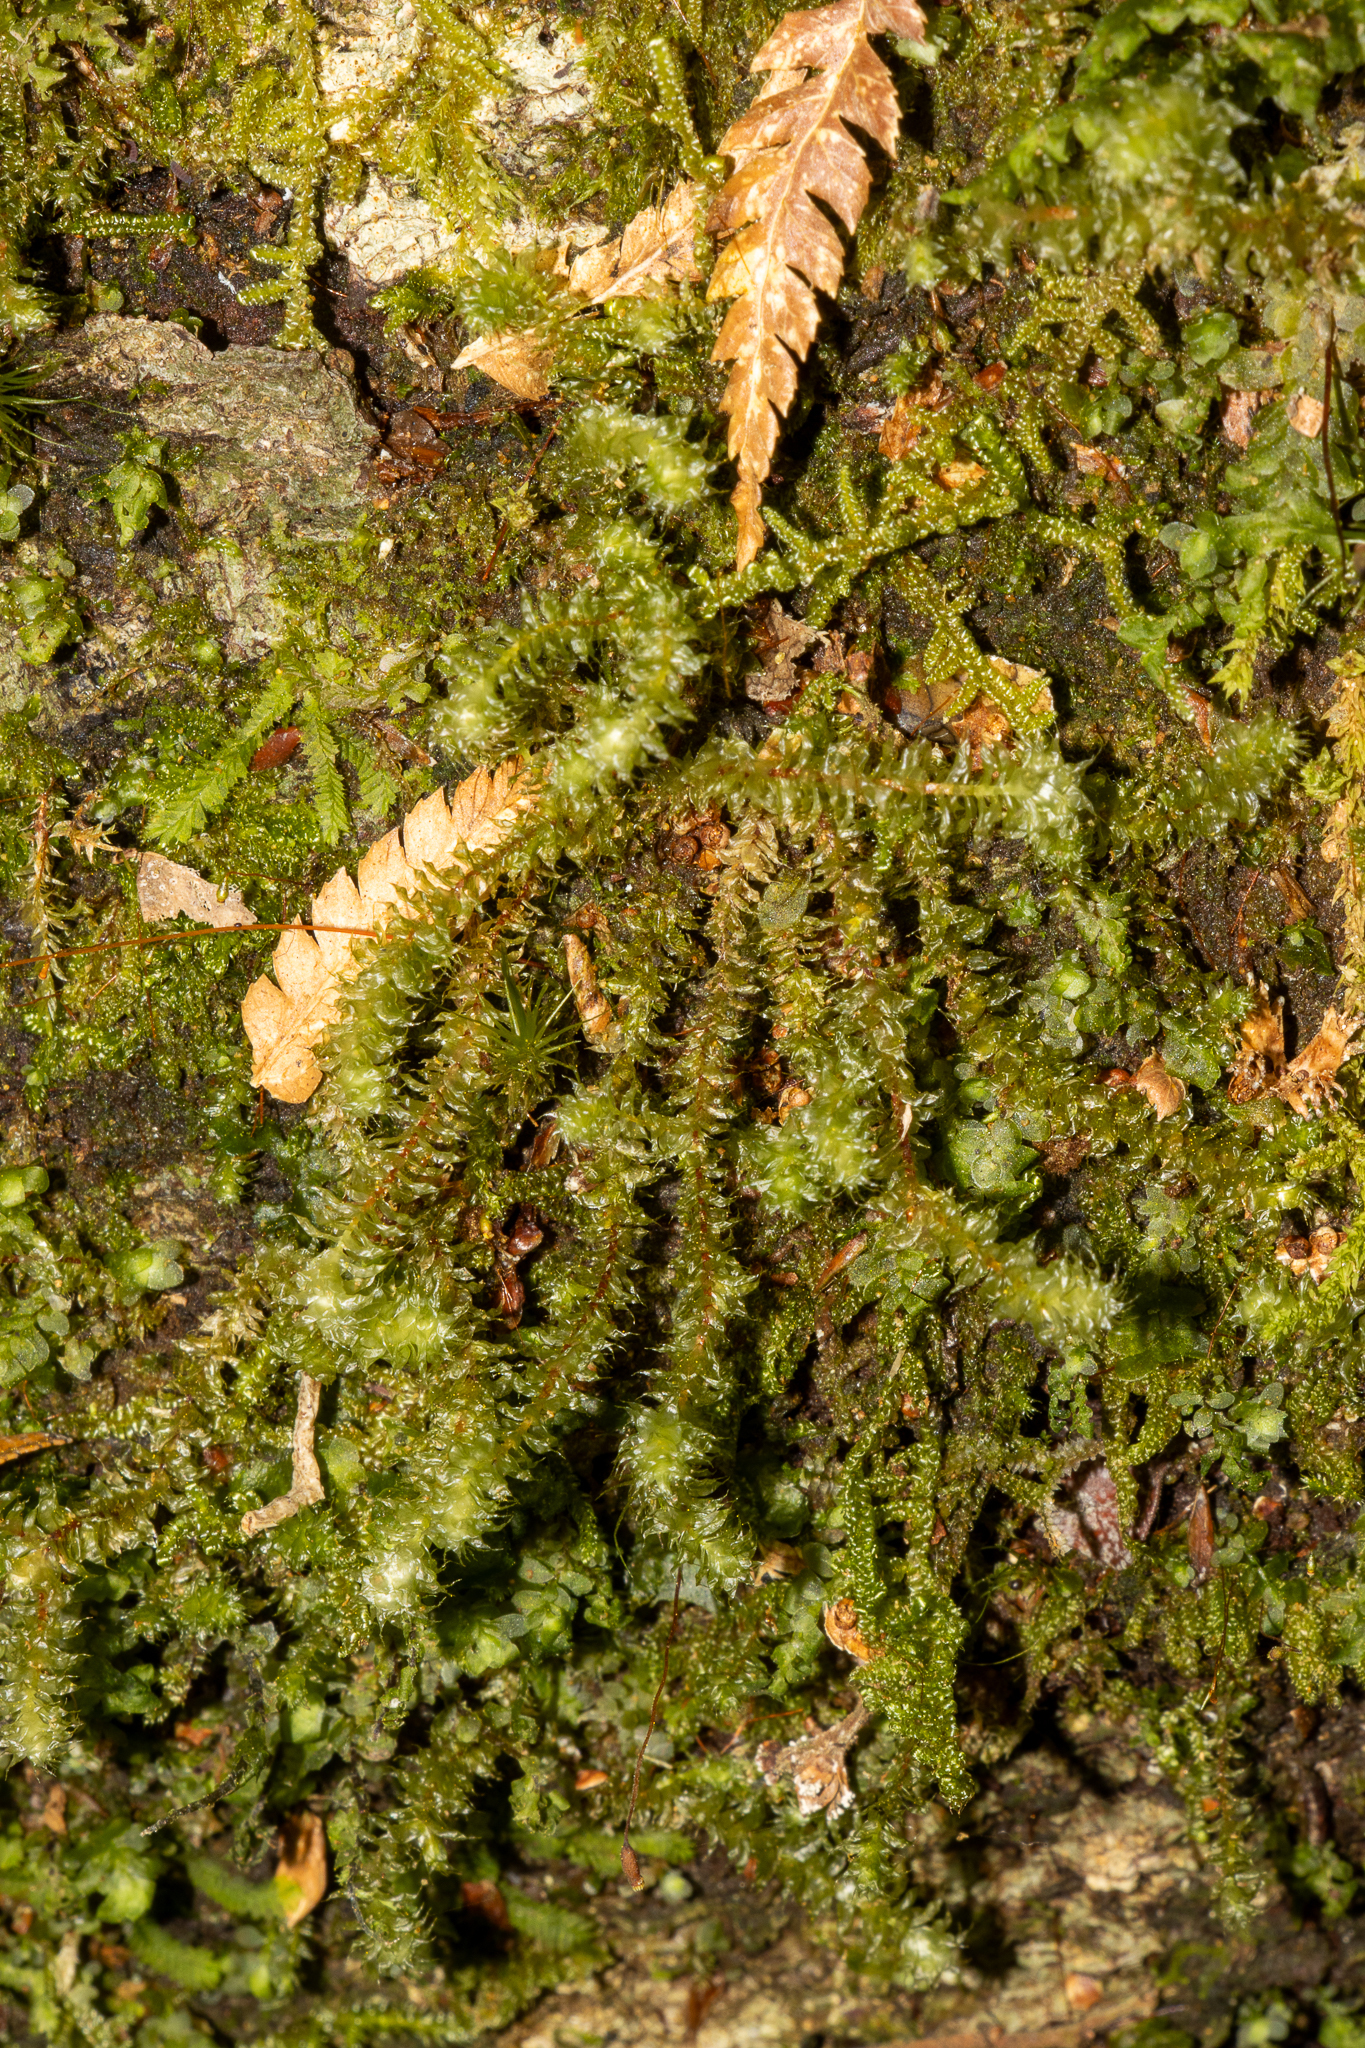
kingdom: Plantae
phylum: Bryophyta
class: Bryopsida
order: Ptychomniales
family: Ptychomniaceae
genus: Ptychomnion
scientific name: Ptychomnion aciculare
